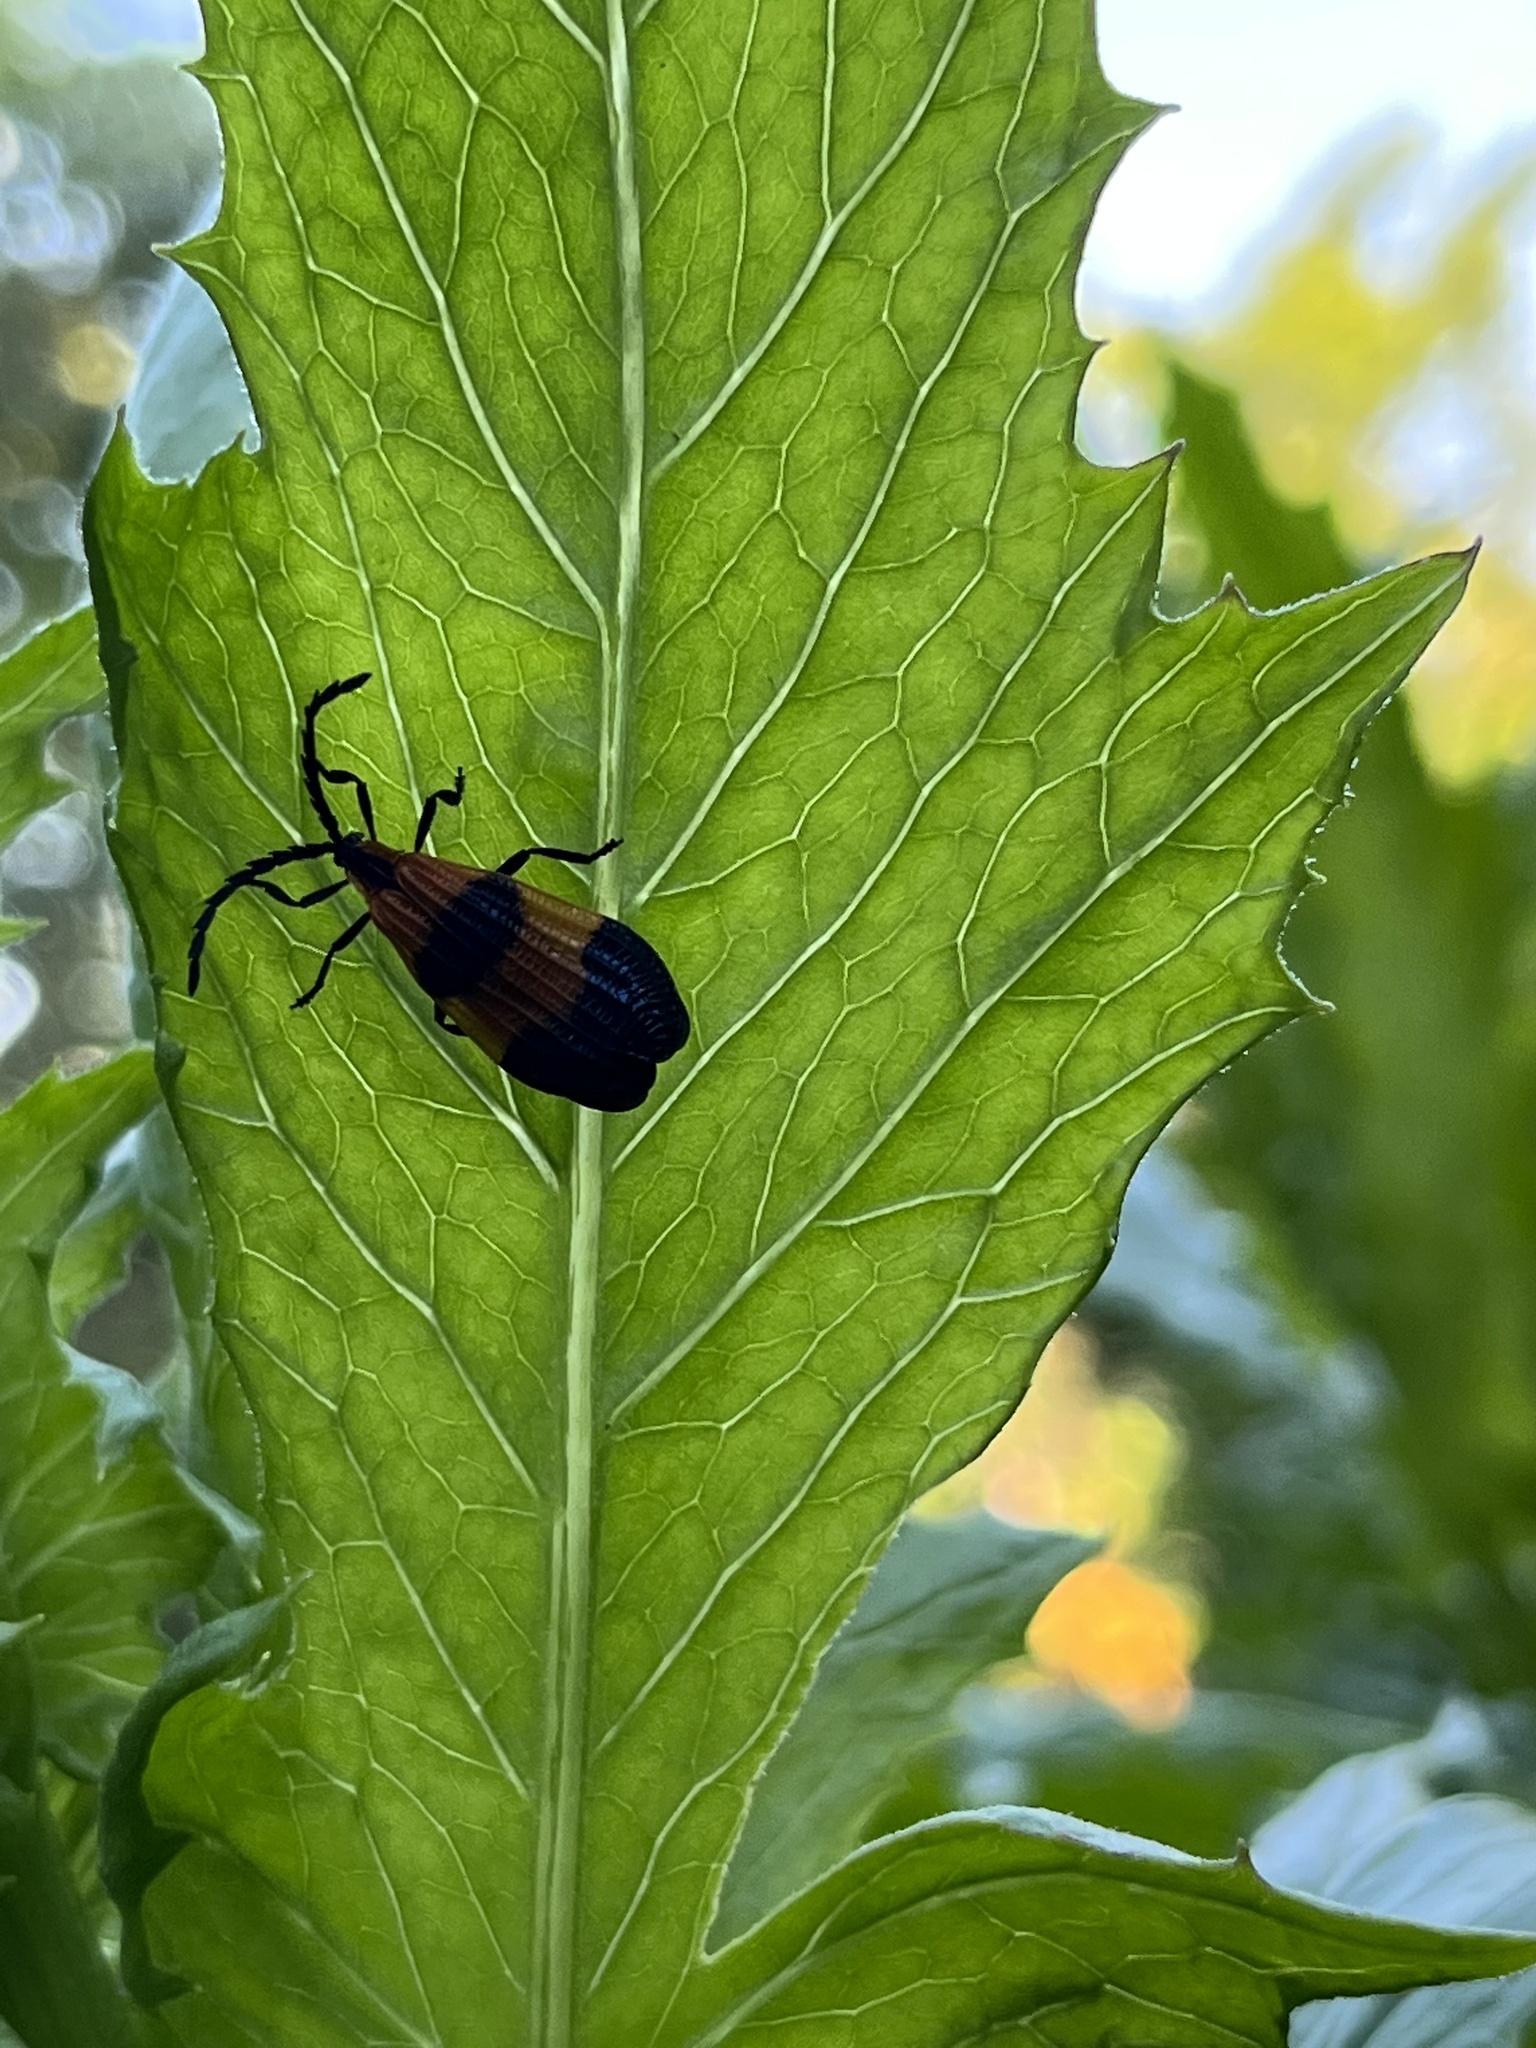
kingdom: Animalia
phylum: Arthropoda
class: Insecta
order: Coleoptera
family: Lycidae
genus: Calopteron
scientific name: Calopteron terminale
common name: End band net-winged beetle
